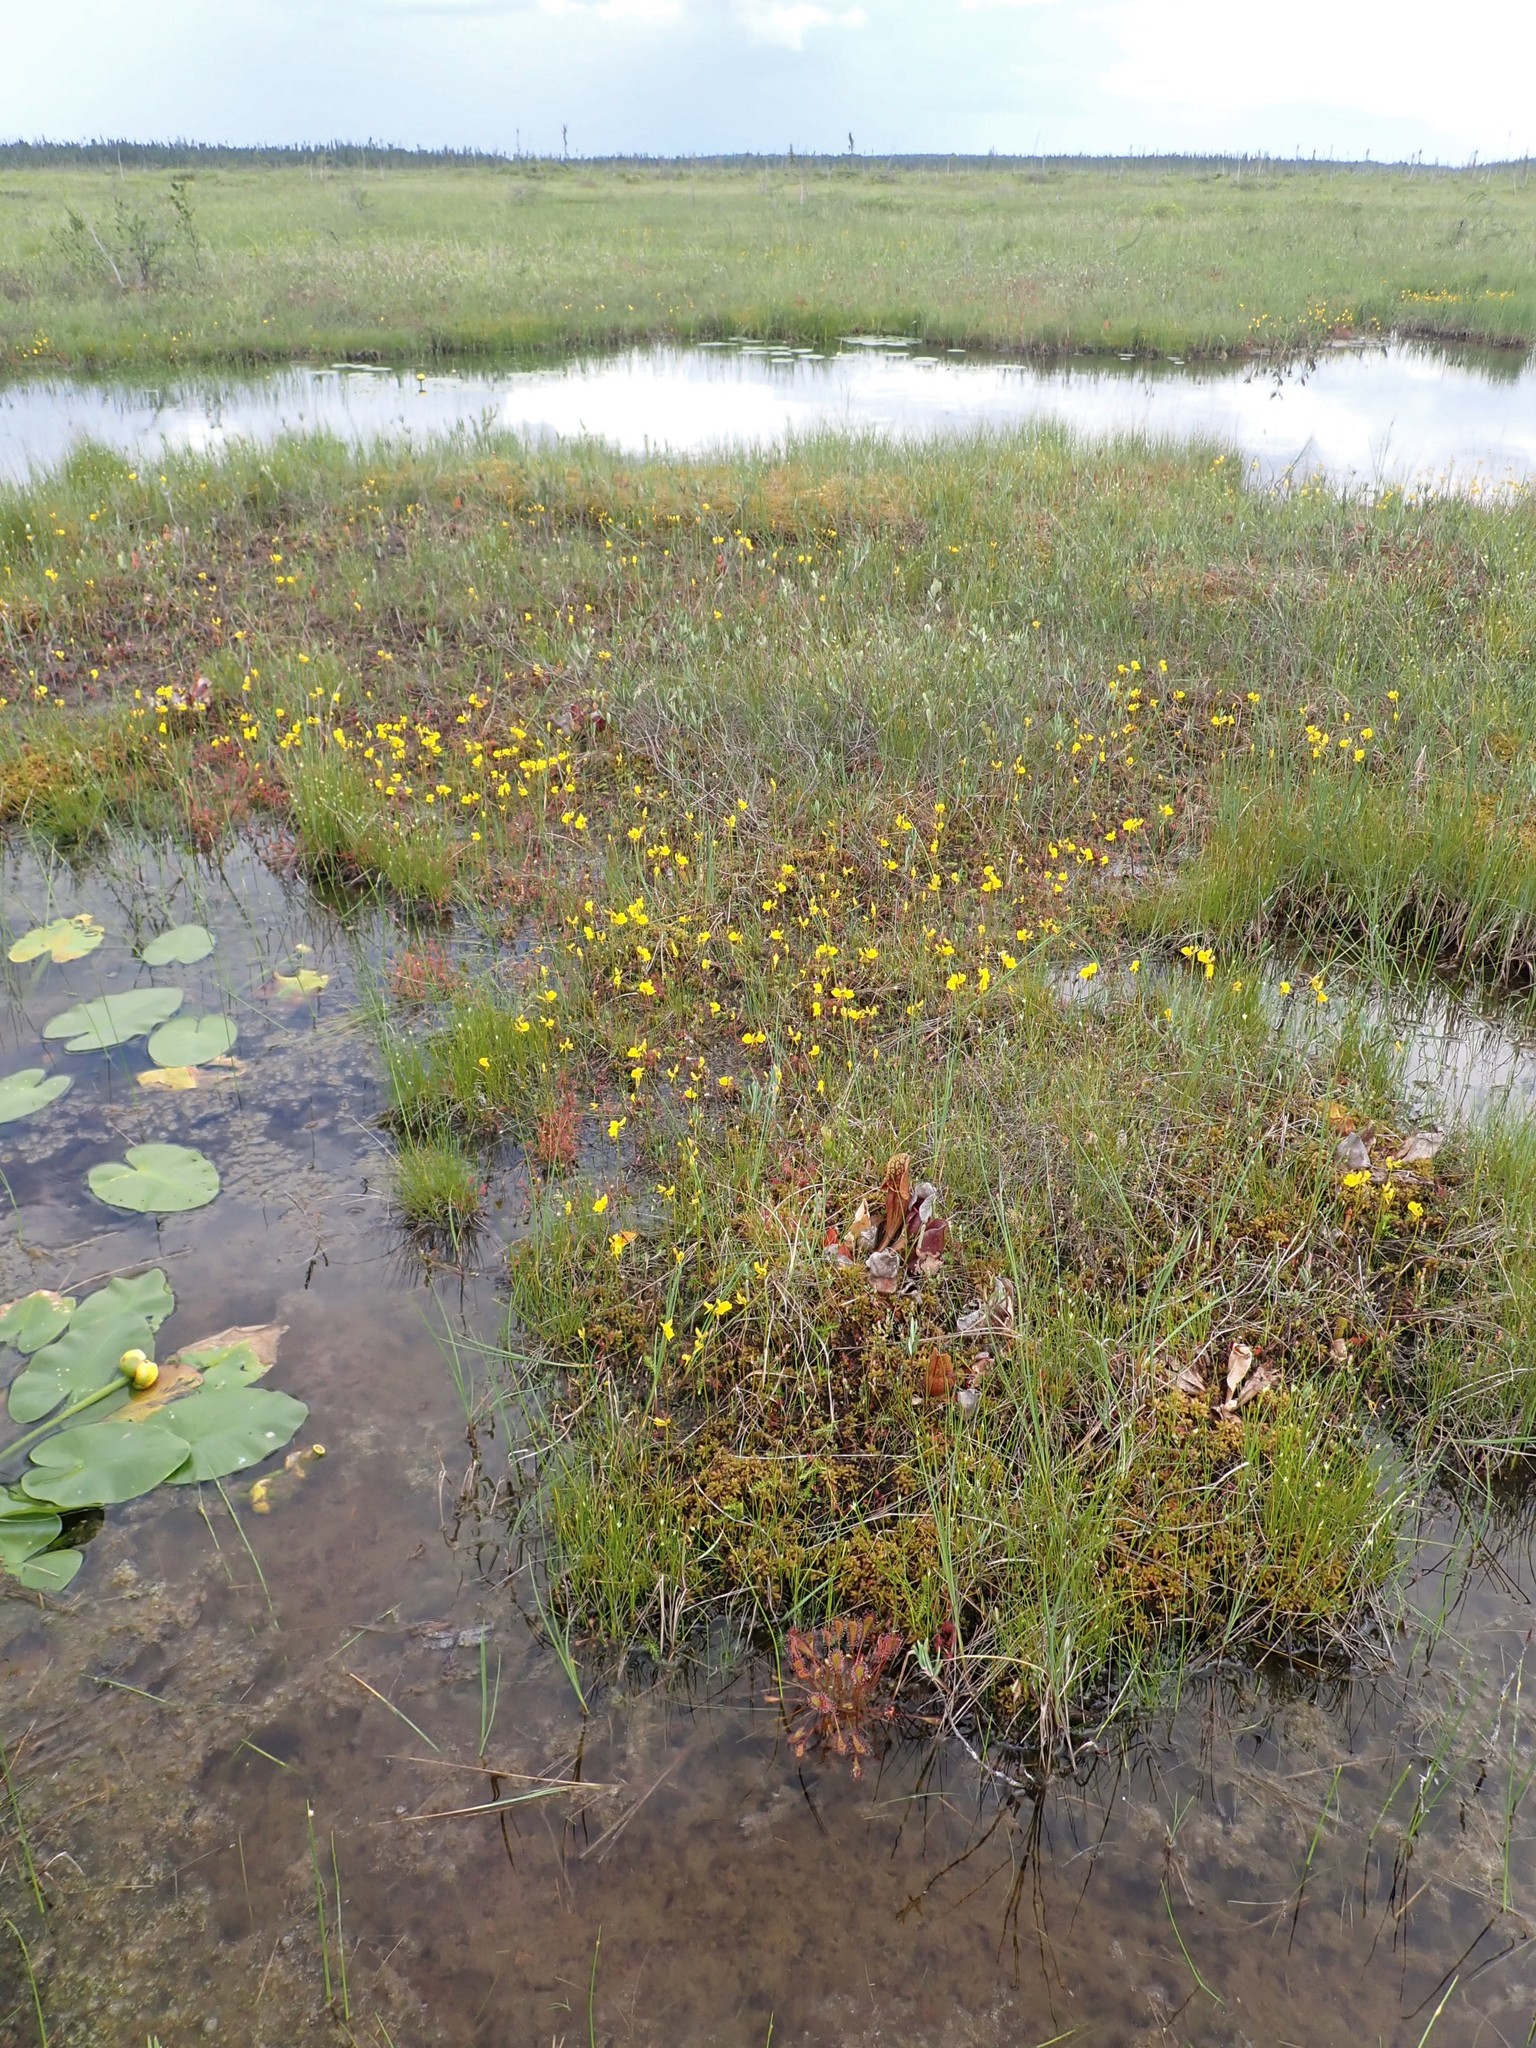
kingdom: Plantae
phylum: Tracheophyta
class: Magnoliopsida
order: Ericales
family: Sarraceniaceae
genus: Sarracenia
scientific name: Sarracenia purpurea
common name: Pitcherplant
